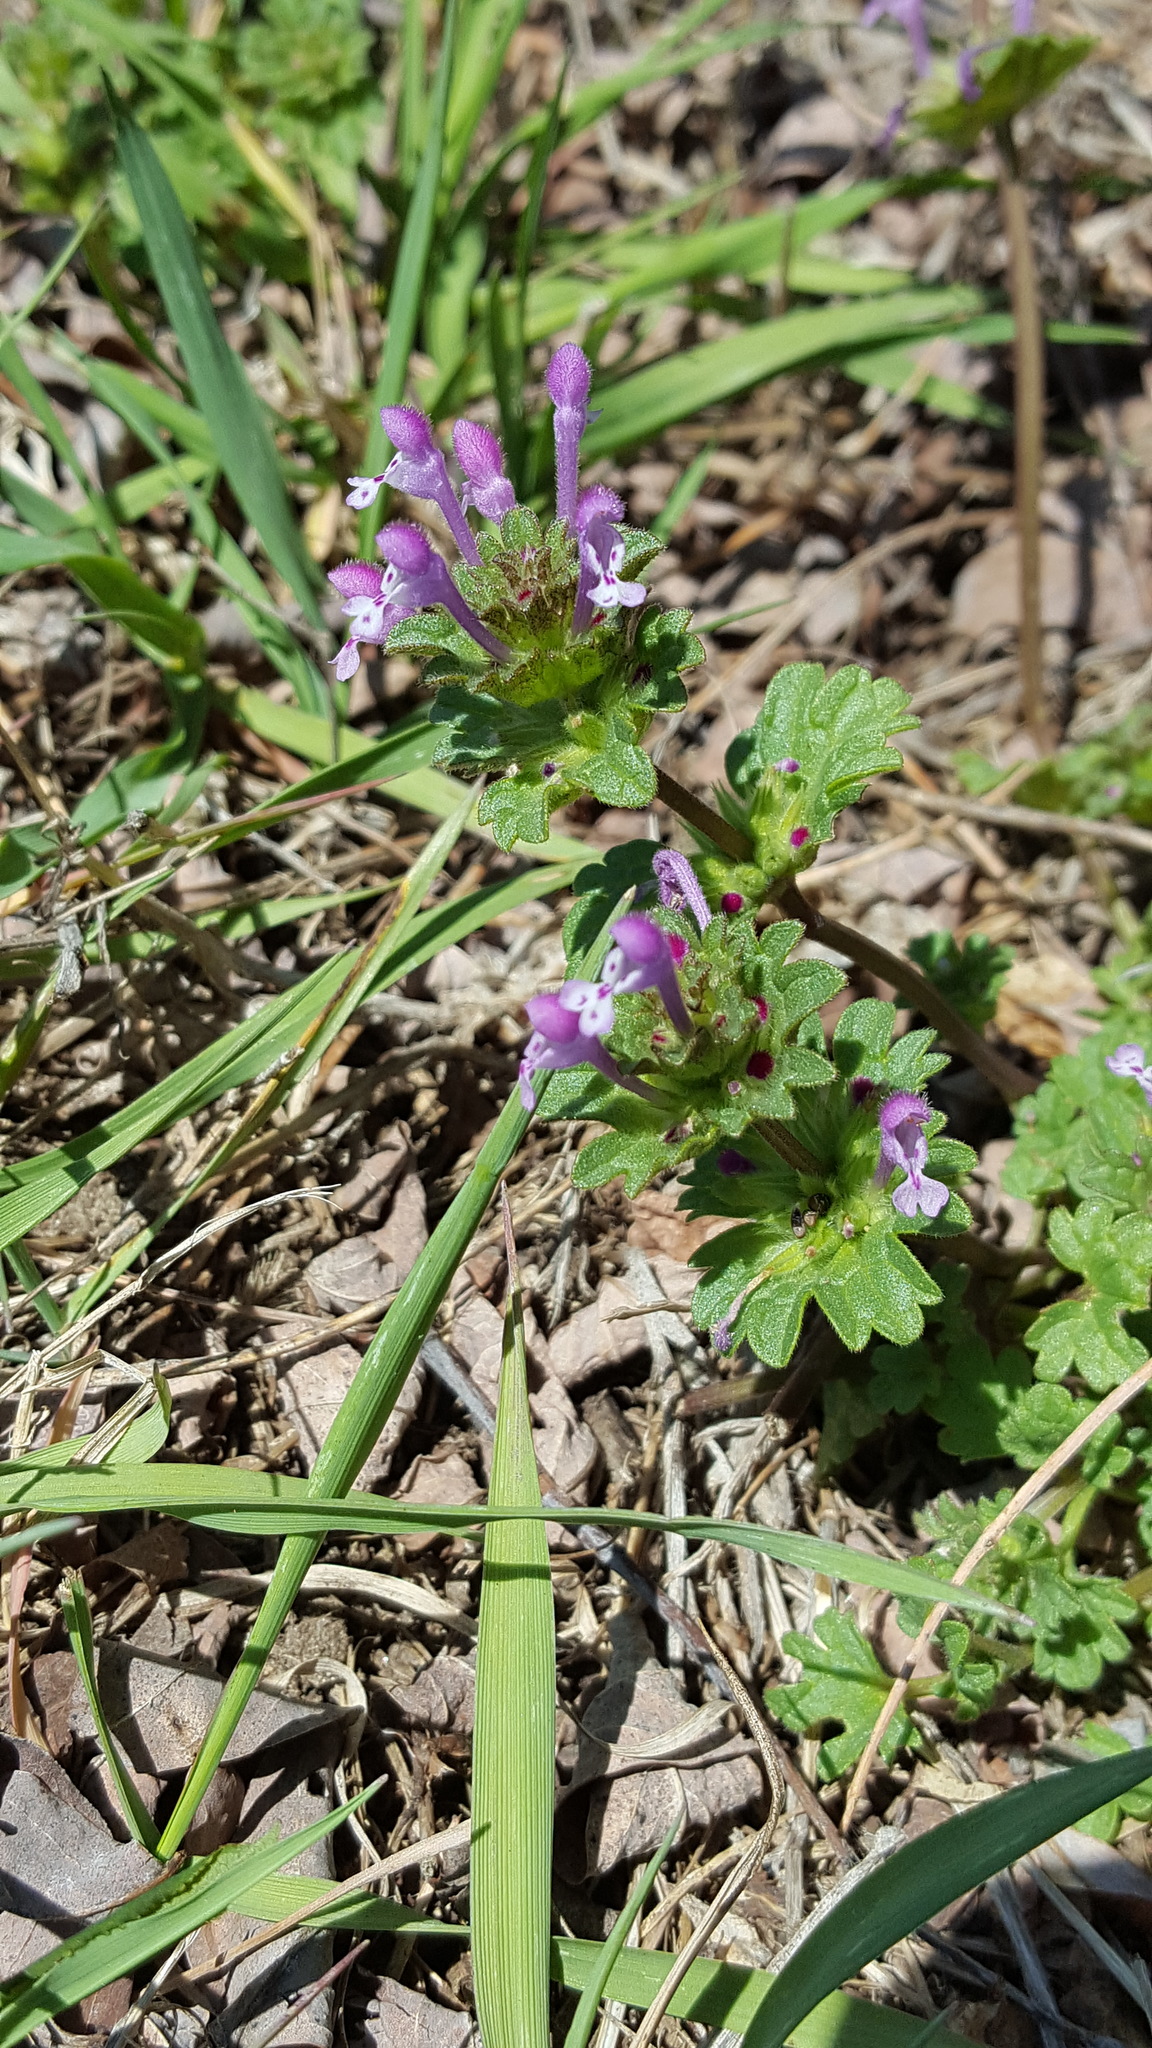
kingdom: Plantae
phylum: Tracheophyta
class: Magnoliopsida
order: Lamiales
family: Lamiaceae
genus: Lamium
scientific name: Lamium amplexicaule
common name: Henbit dead-nettle
